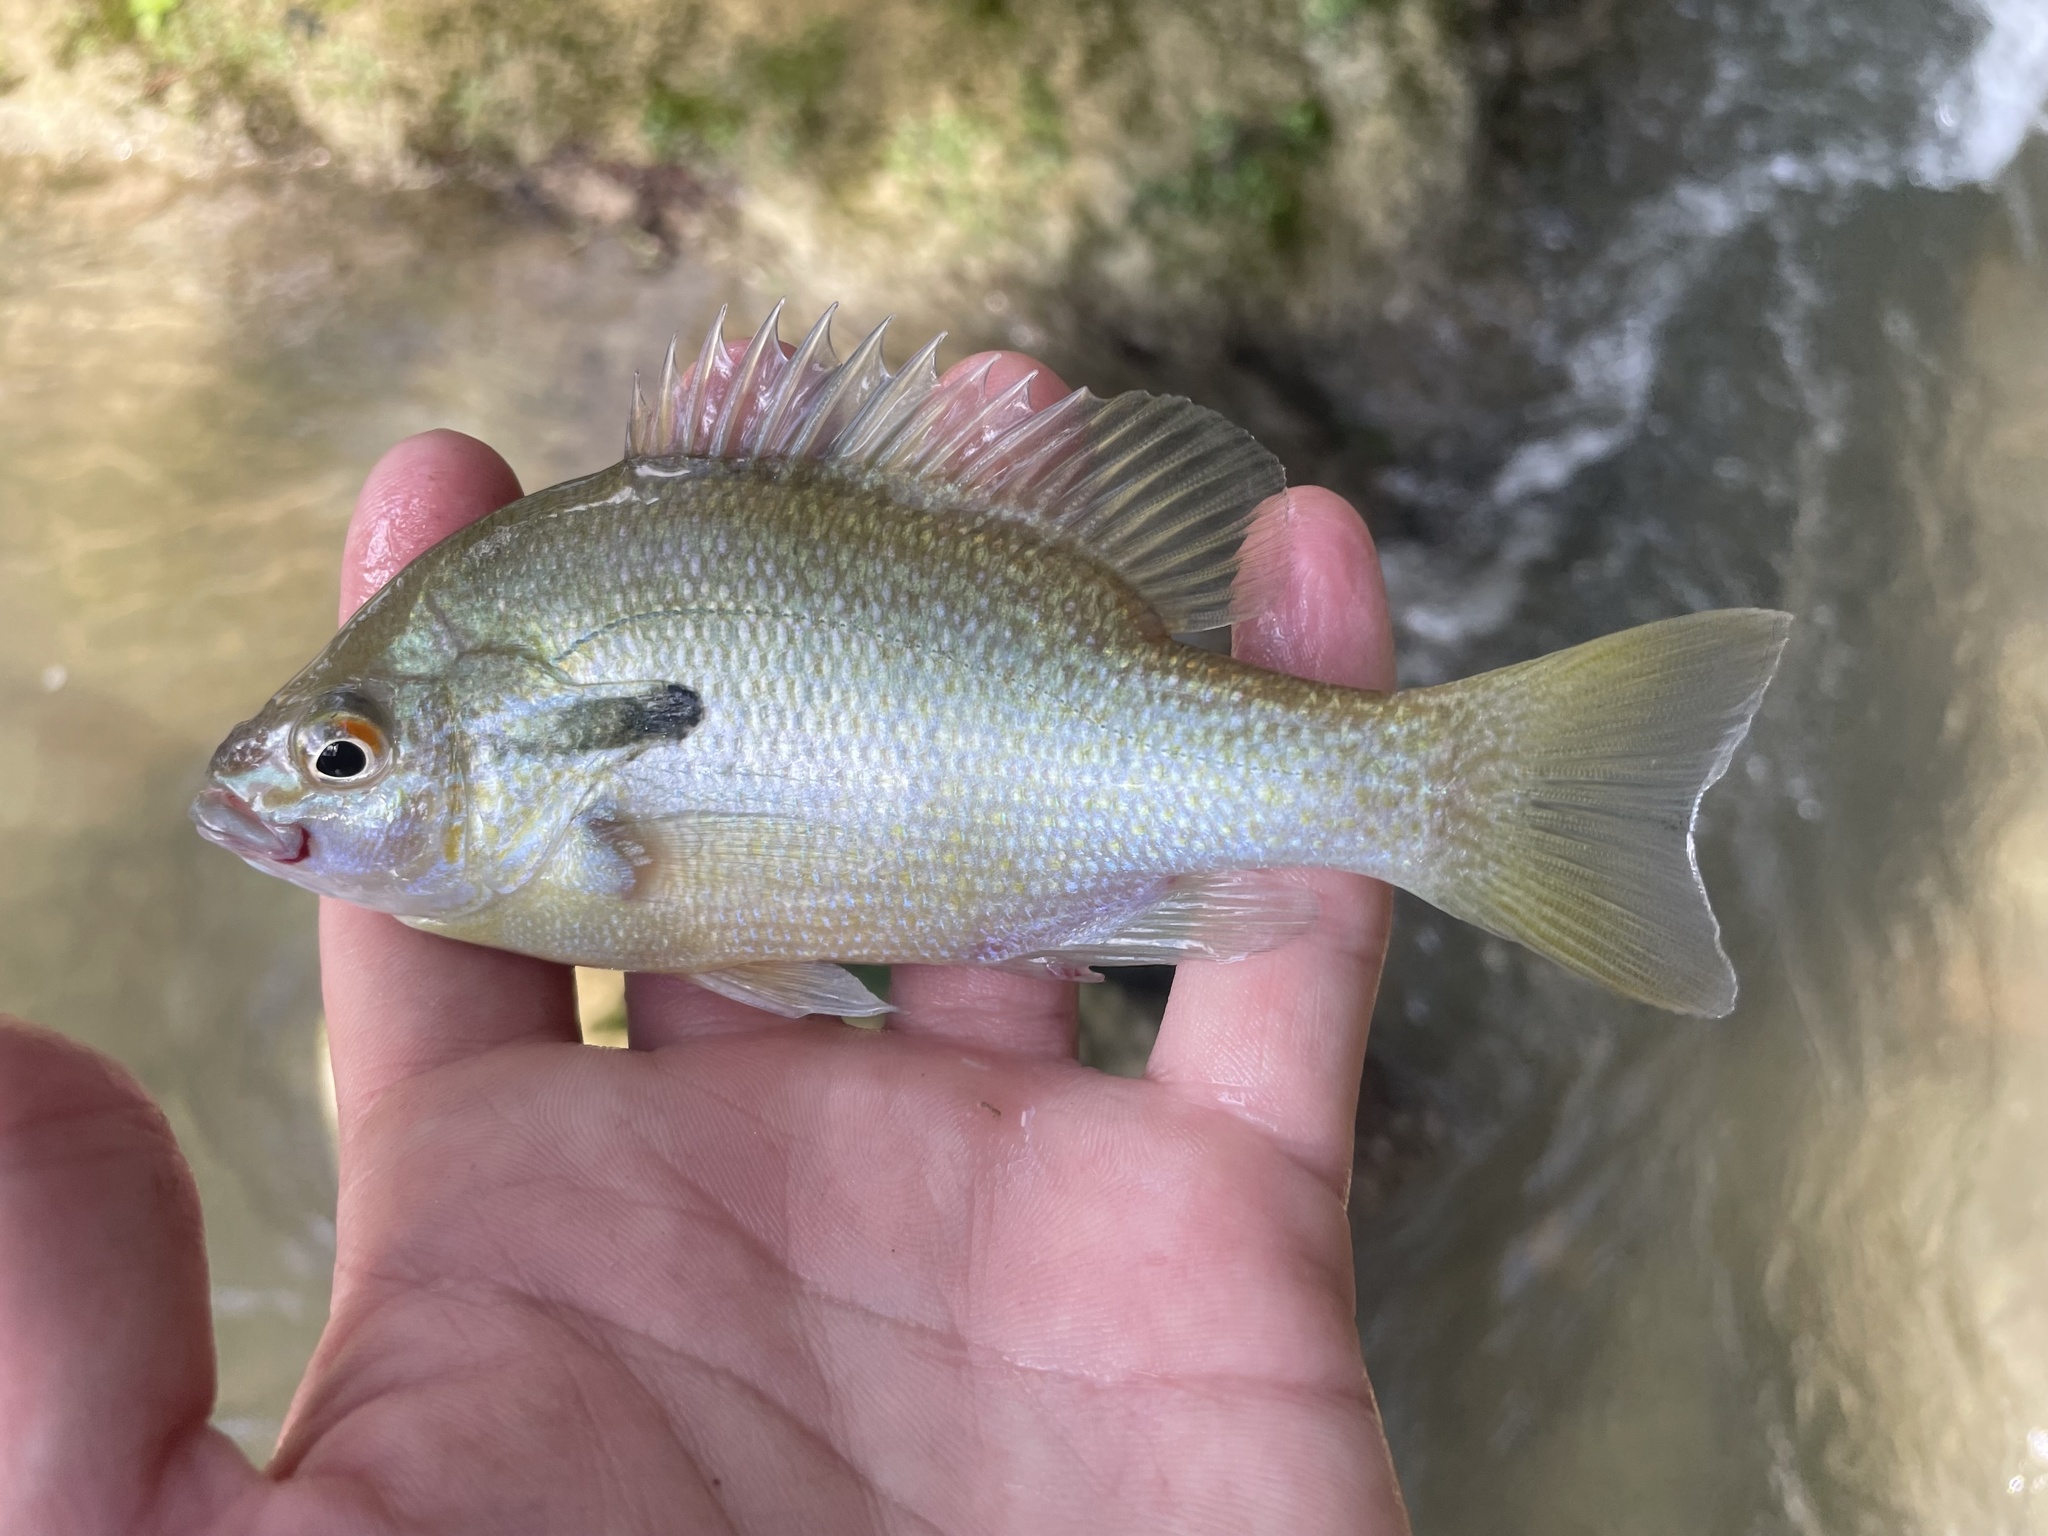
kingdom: Animalia
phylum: Chordata
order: Perciformes
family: Centrarchidae
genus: Lepomis
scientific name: Lepomis auritus
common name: Redbreast sunfish
